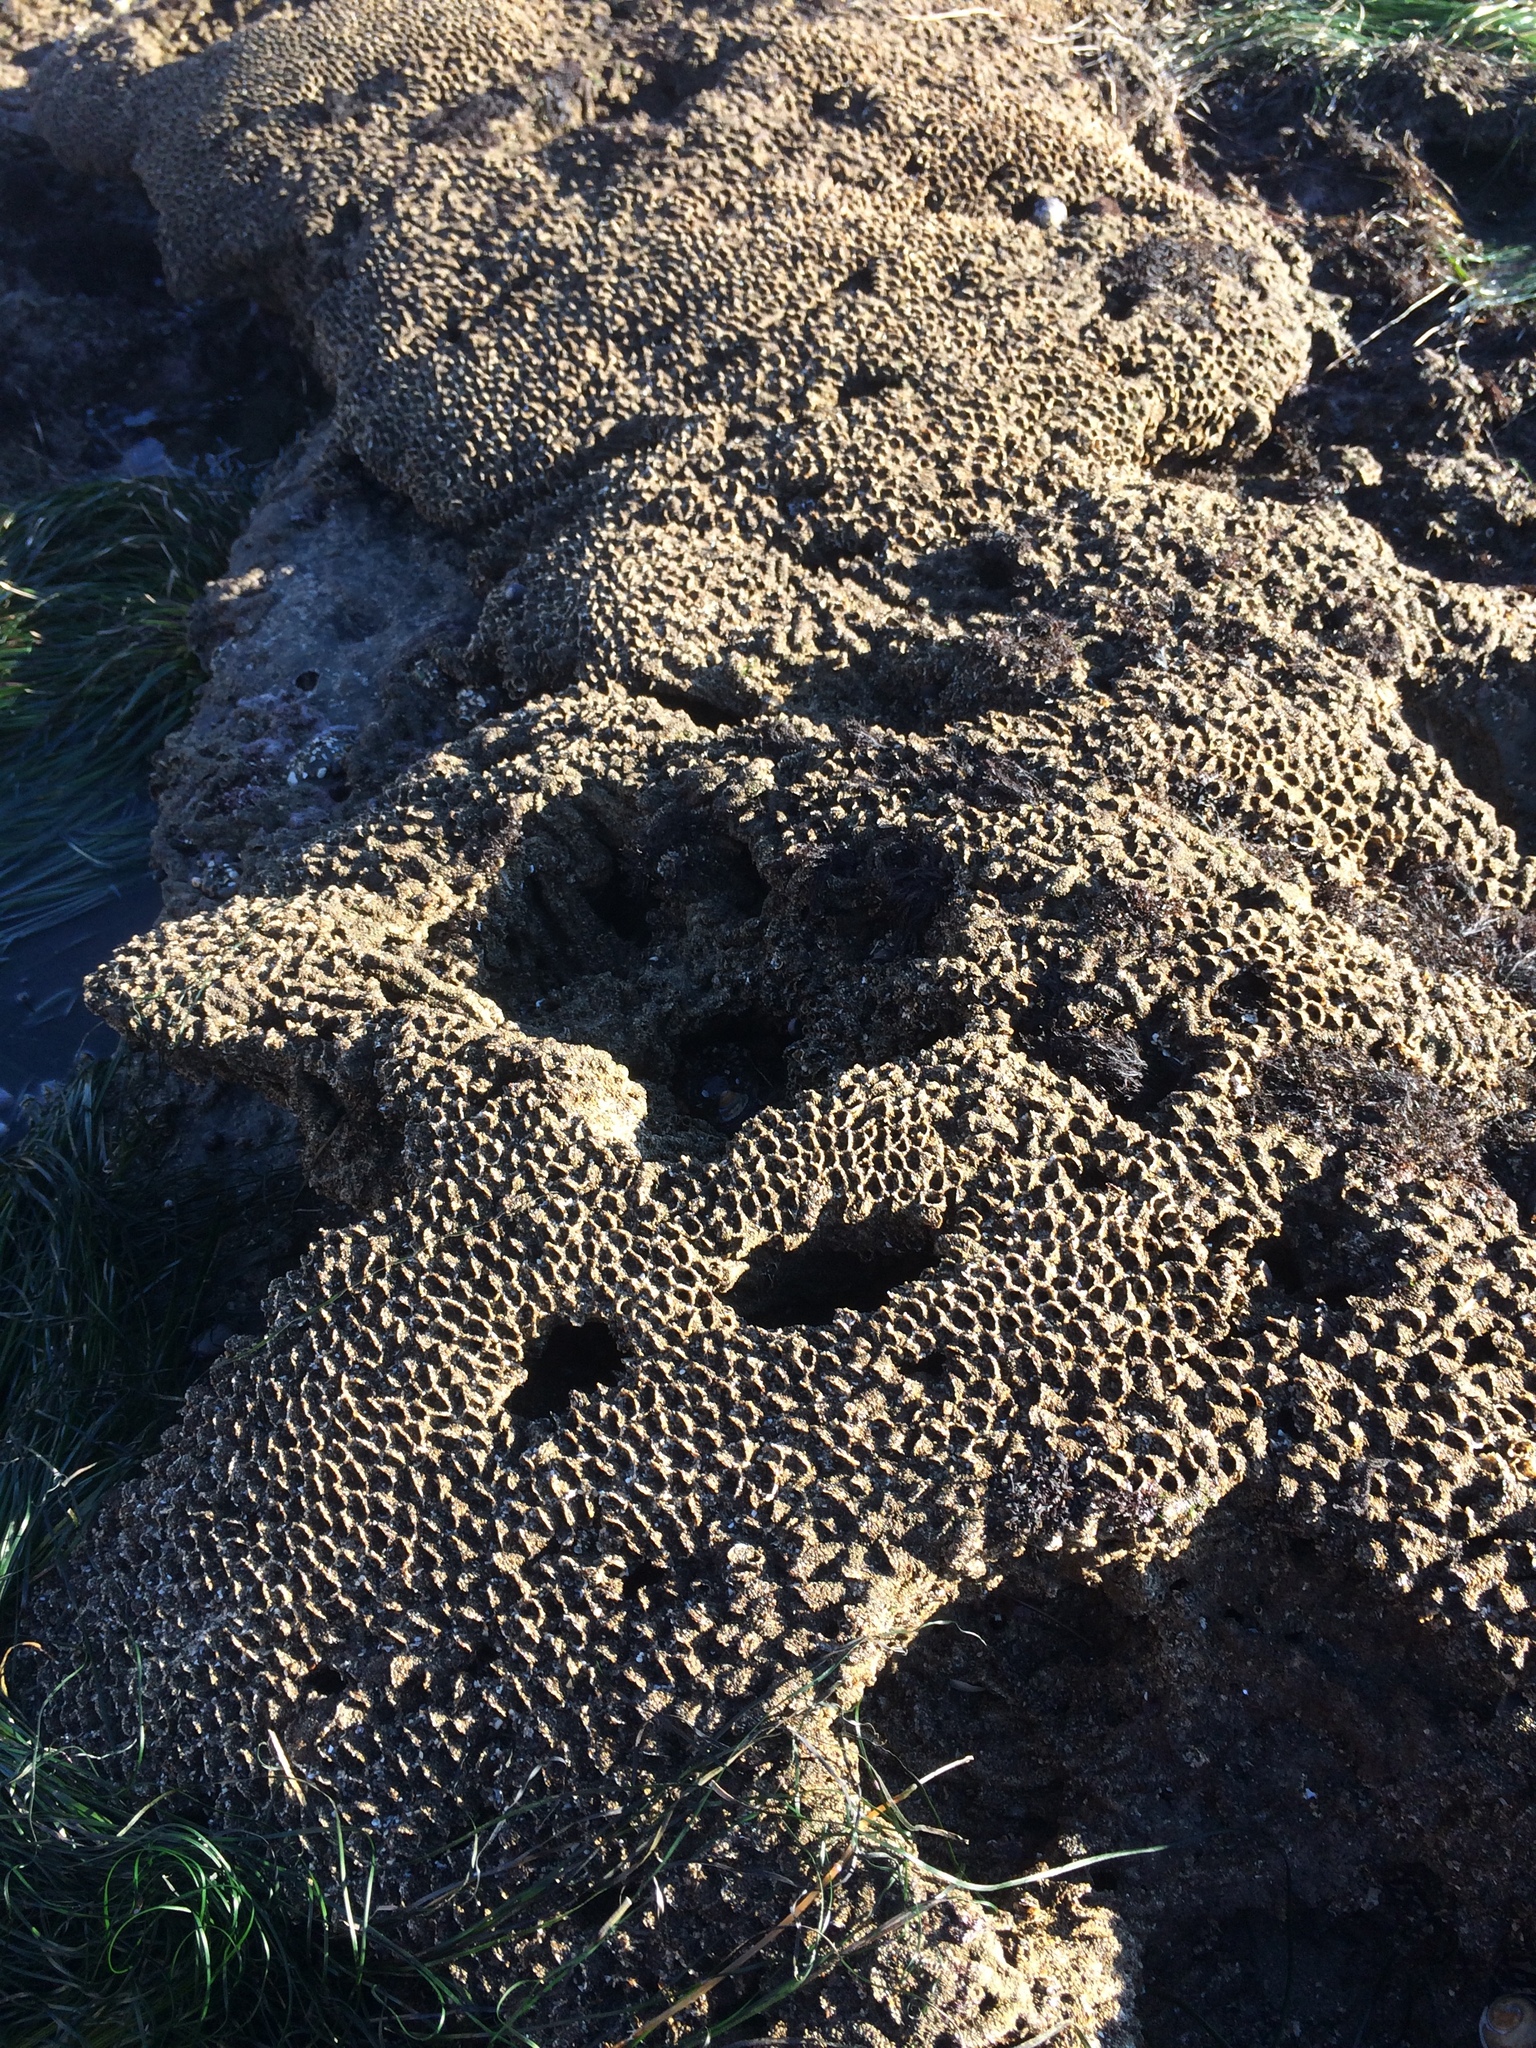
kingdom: Animalia
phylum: Annelida
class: Polychaeta
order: Sabellida
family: Sabellariidae
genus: Phragmatopoma
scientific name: Phragmatopoma californica
